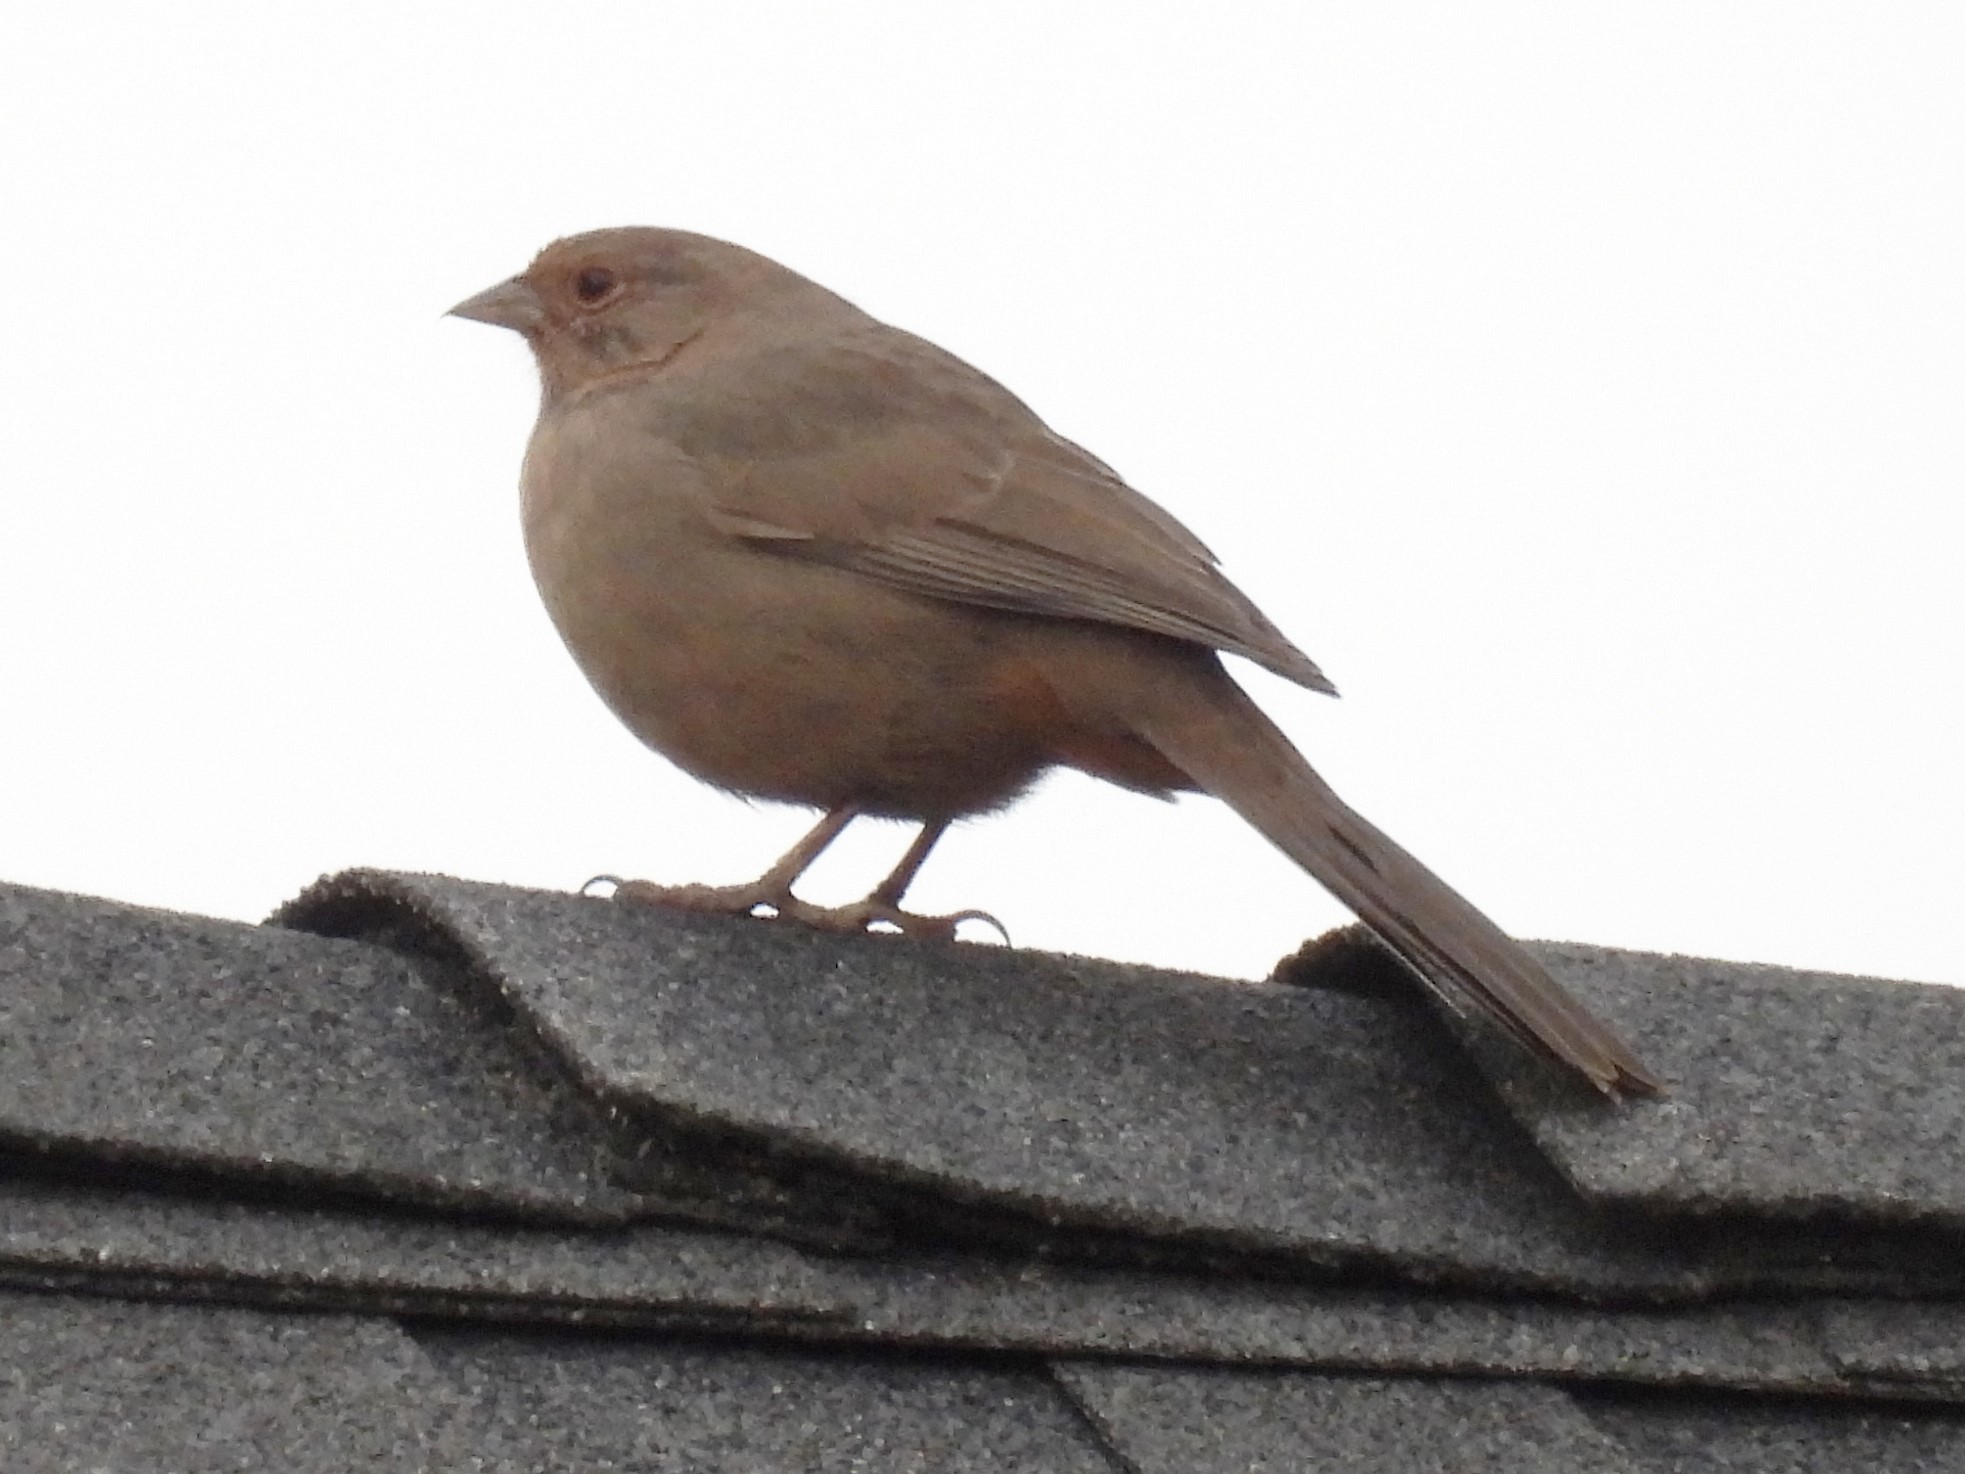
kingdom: Animalia
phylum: Chordata
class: Aves
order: Passeriformes
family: Passerellidae
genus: Melozone
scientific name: Melozone crissalis
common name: California towhee
